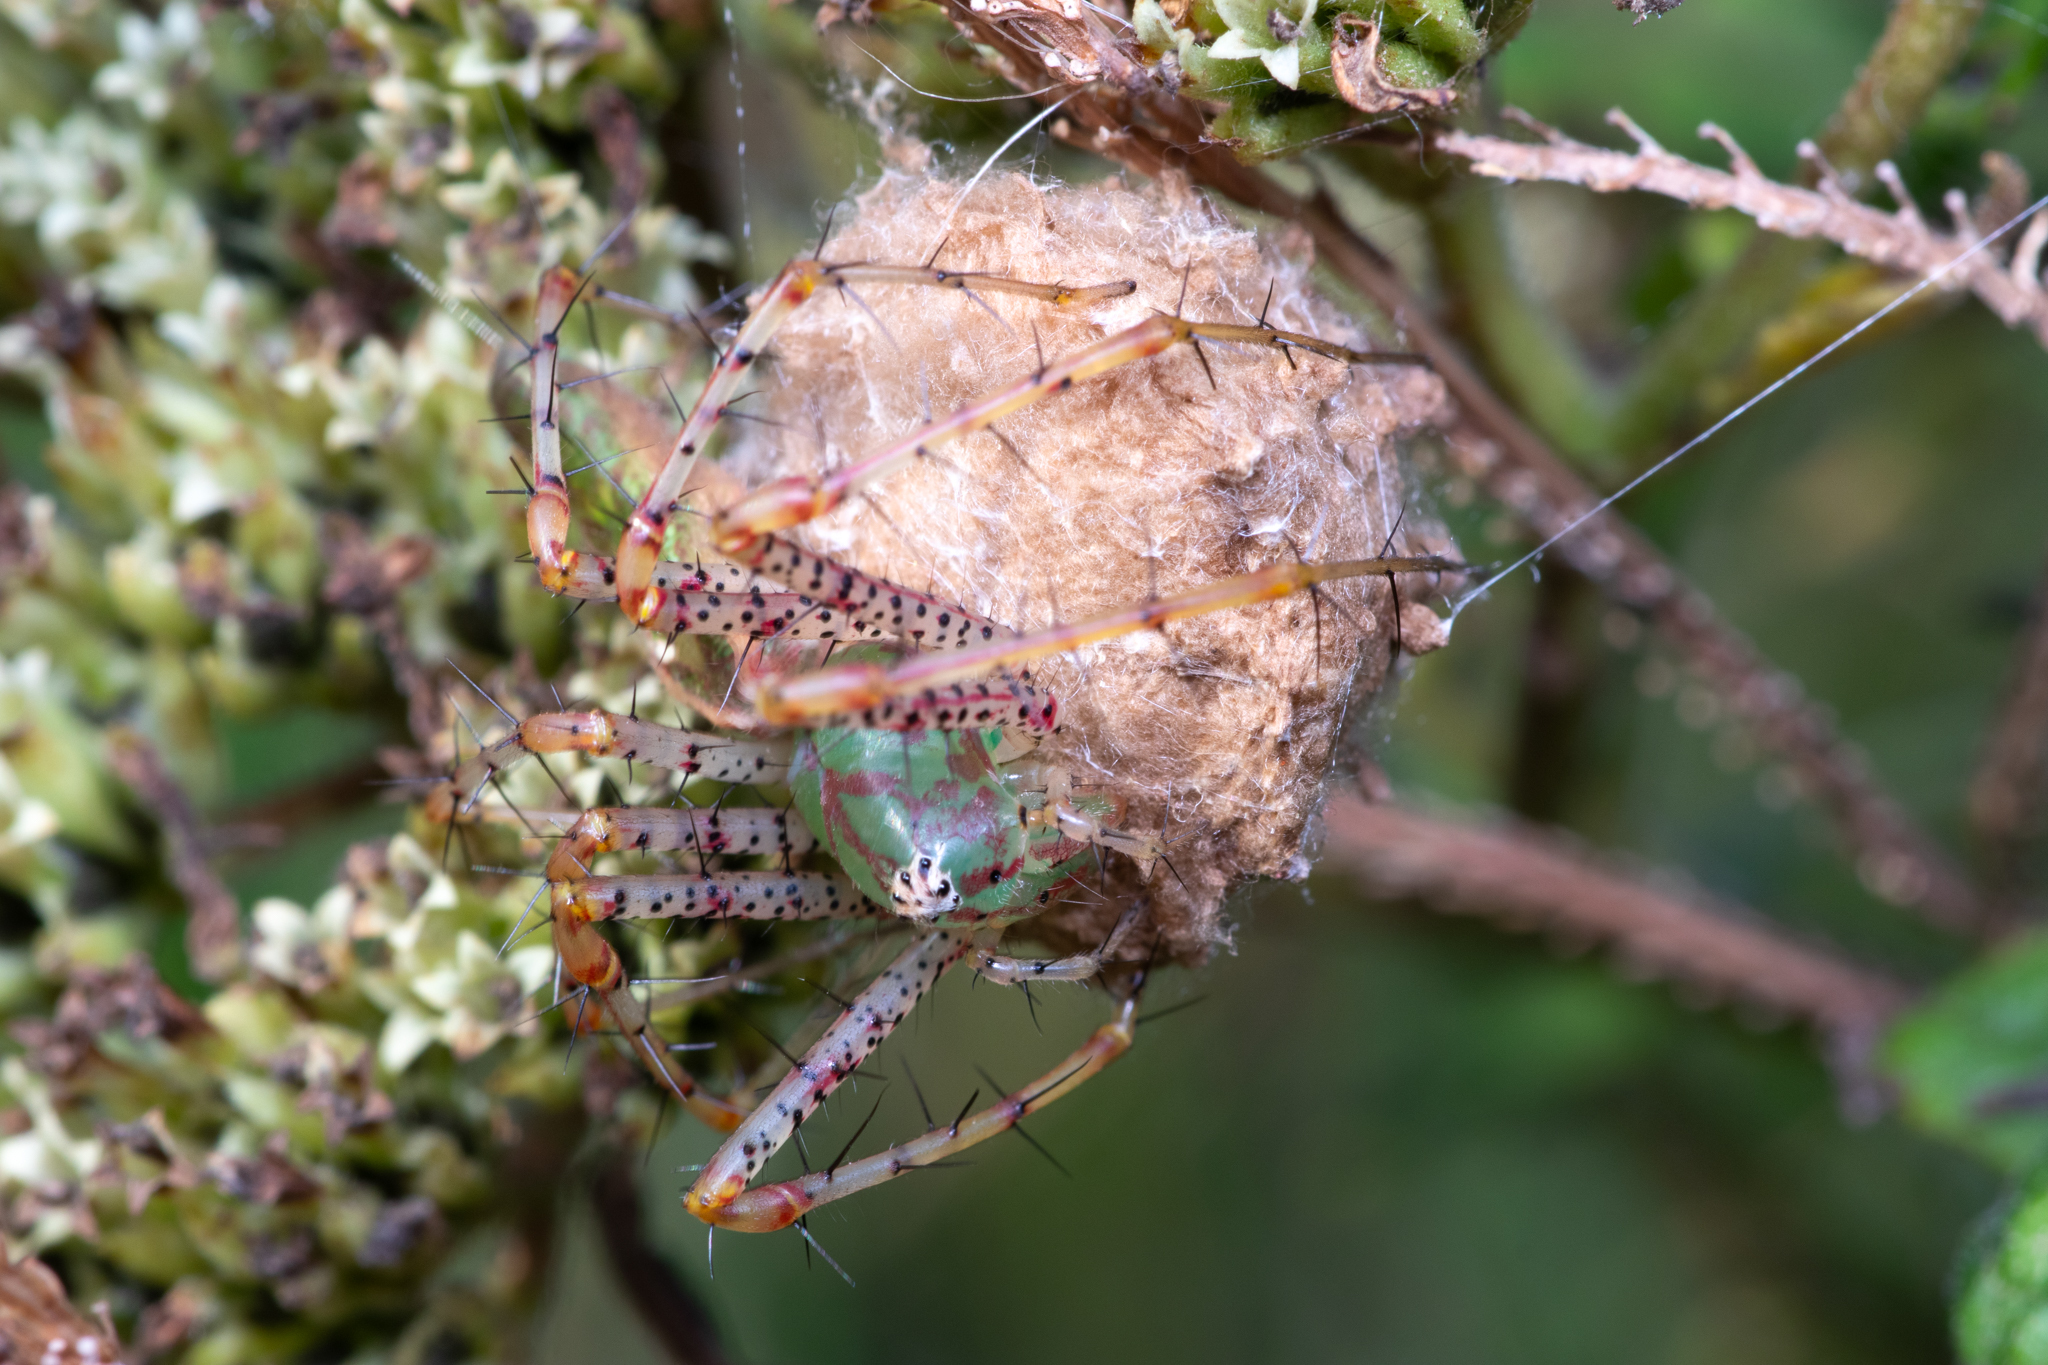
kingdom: Animalia
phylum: Arthropoda
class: Arachnida
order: Araneae
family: Oxyopidae
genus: Peucetia
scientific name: Peucetia viridans
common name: Lynx spiders
